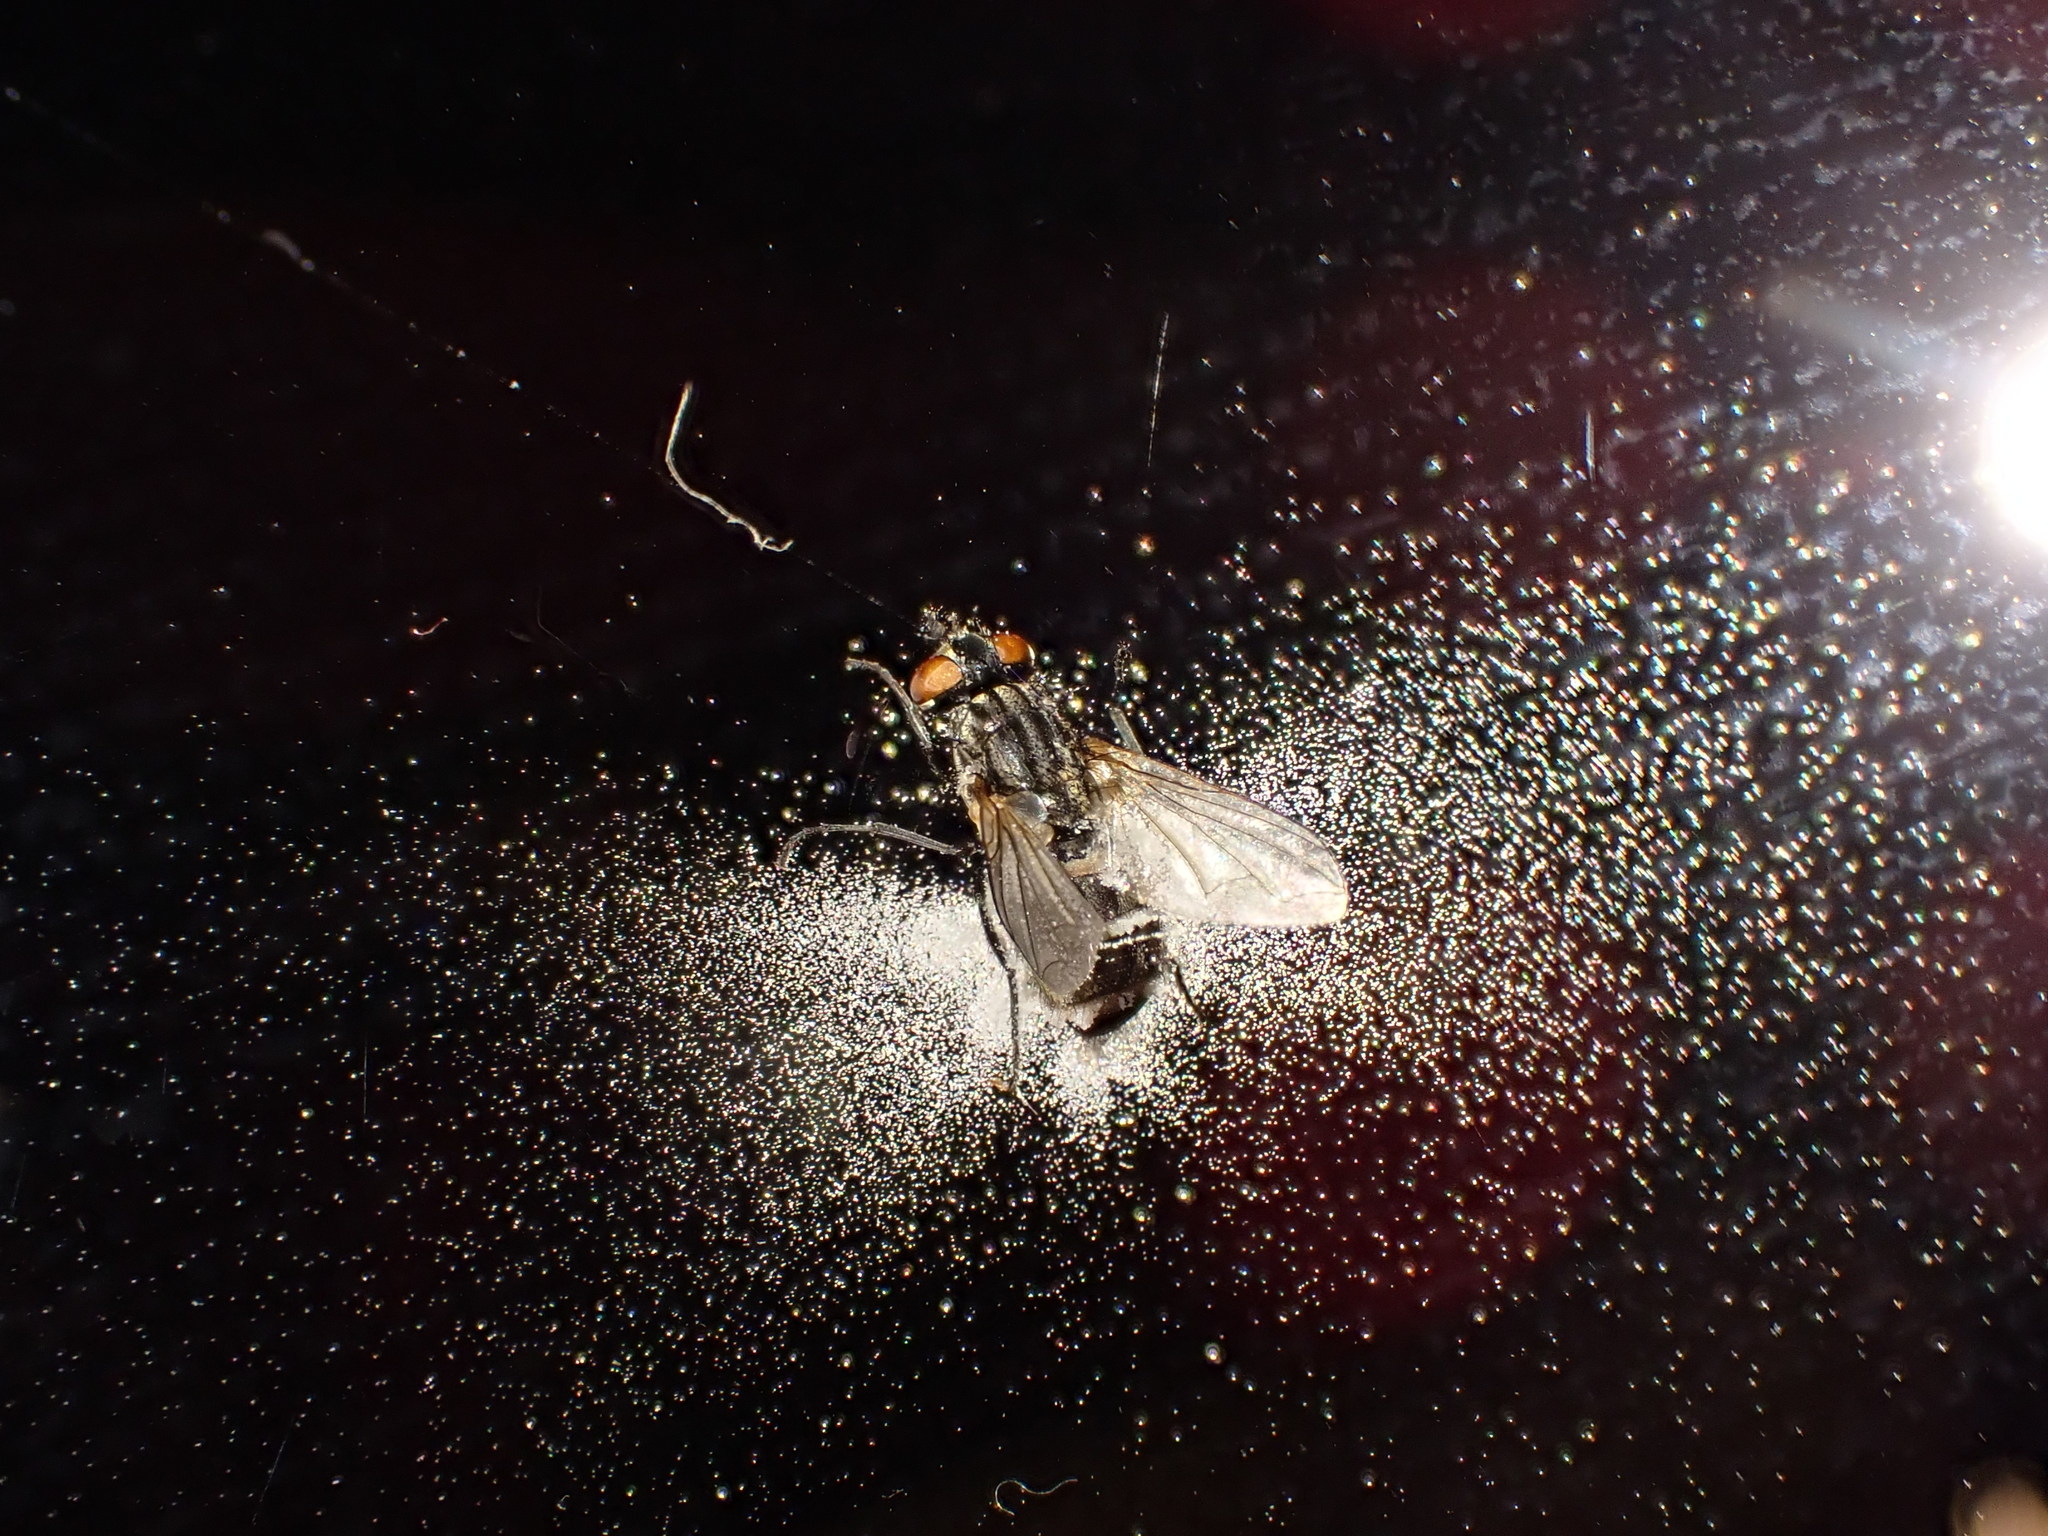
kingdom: Fungi
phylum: Entomophthoromycota
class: Entomophthoromycetes
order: Entomophthorales
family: Entomophthoraceae
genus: Entomophthora
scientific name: Entomophthora
